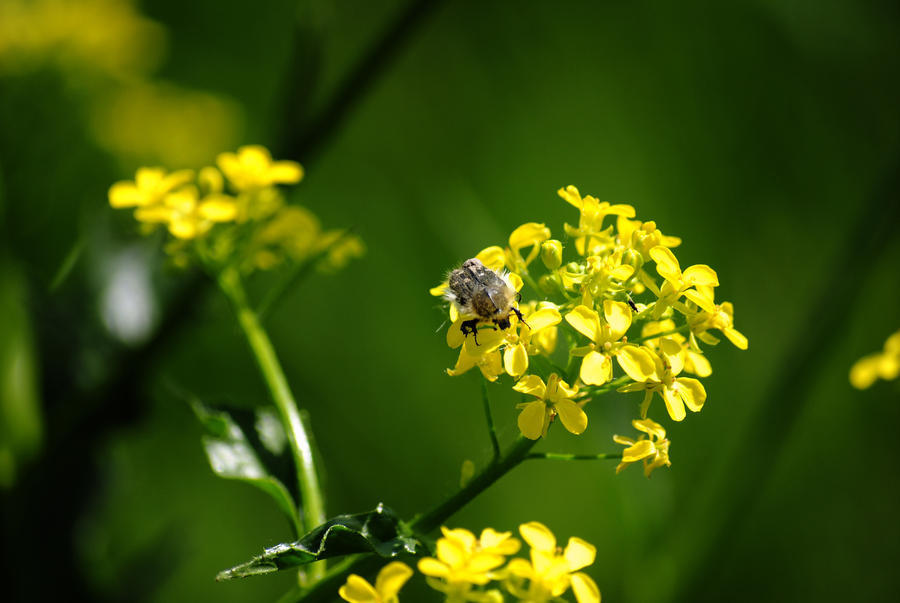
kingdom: Animalia
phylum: Arthropoda
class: Insecta
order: Coleoptera
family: Scarabaeidae
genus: Tropinota
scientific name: Tropinota hirta
